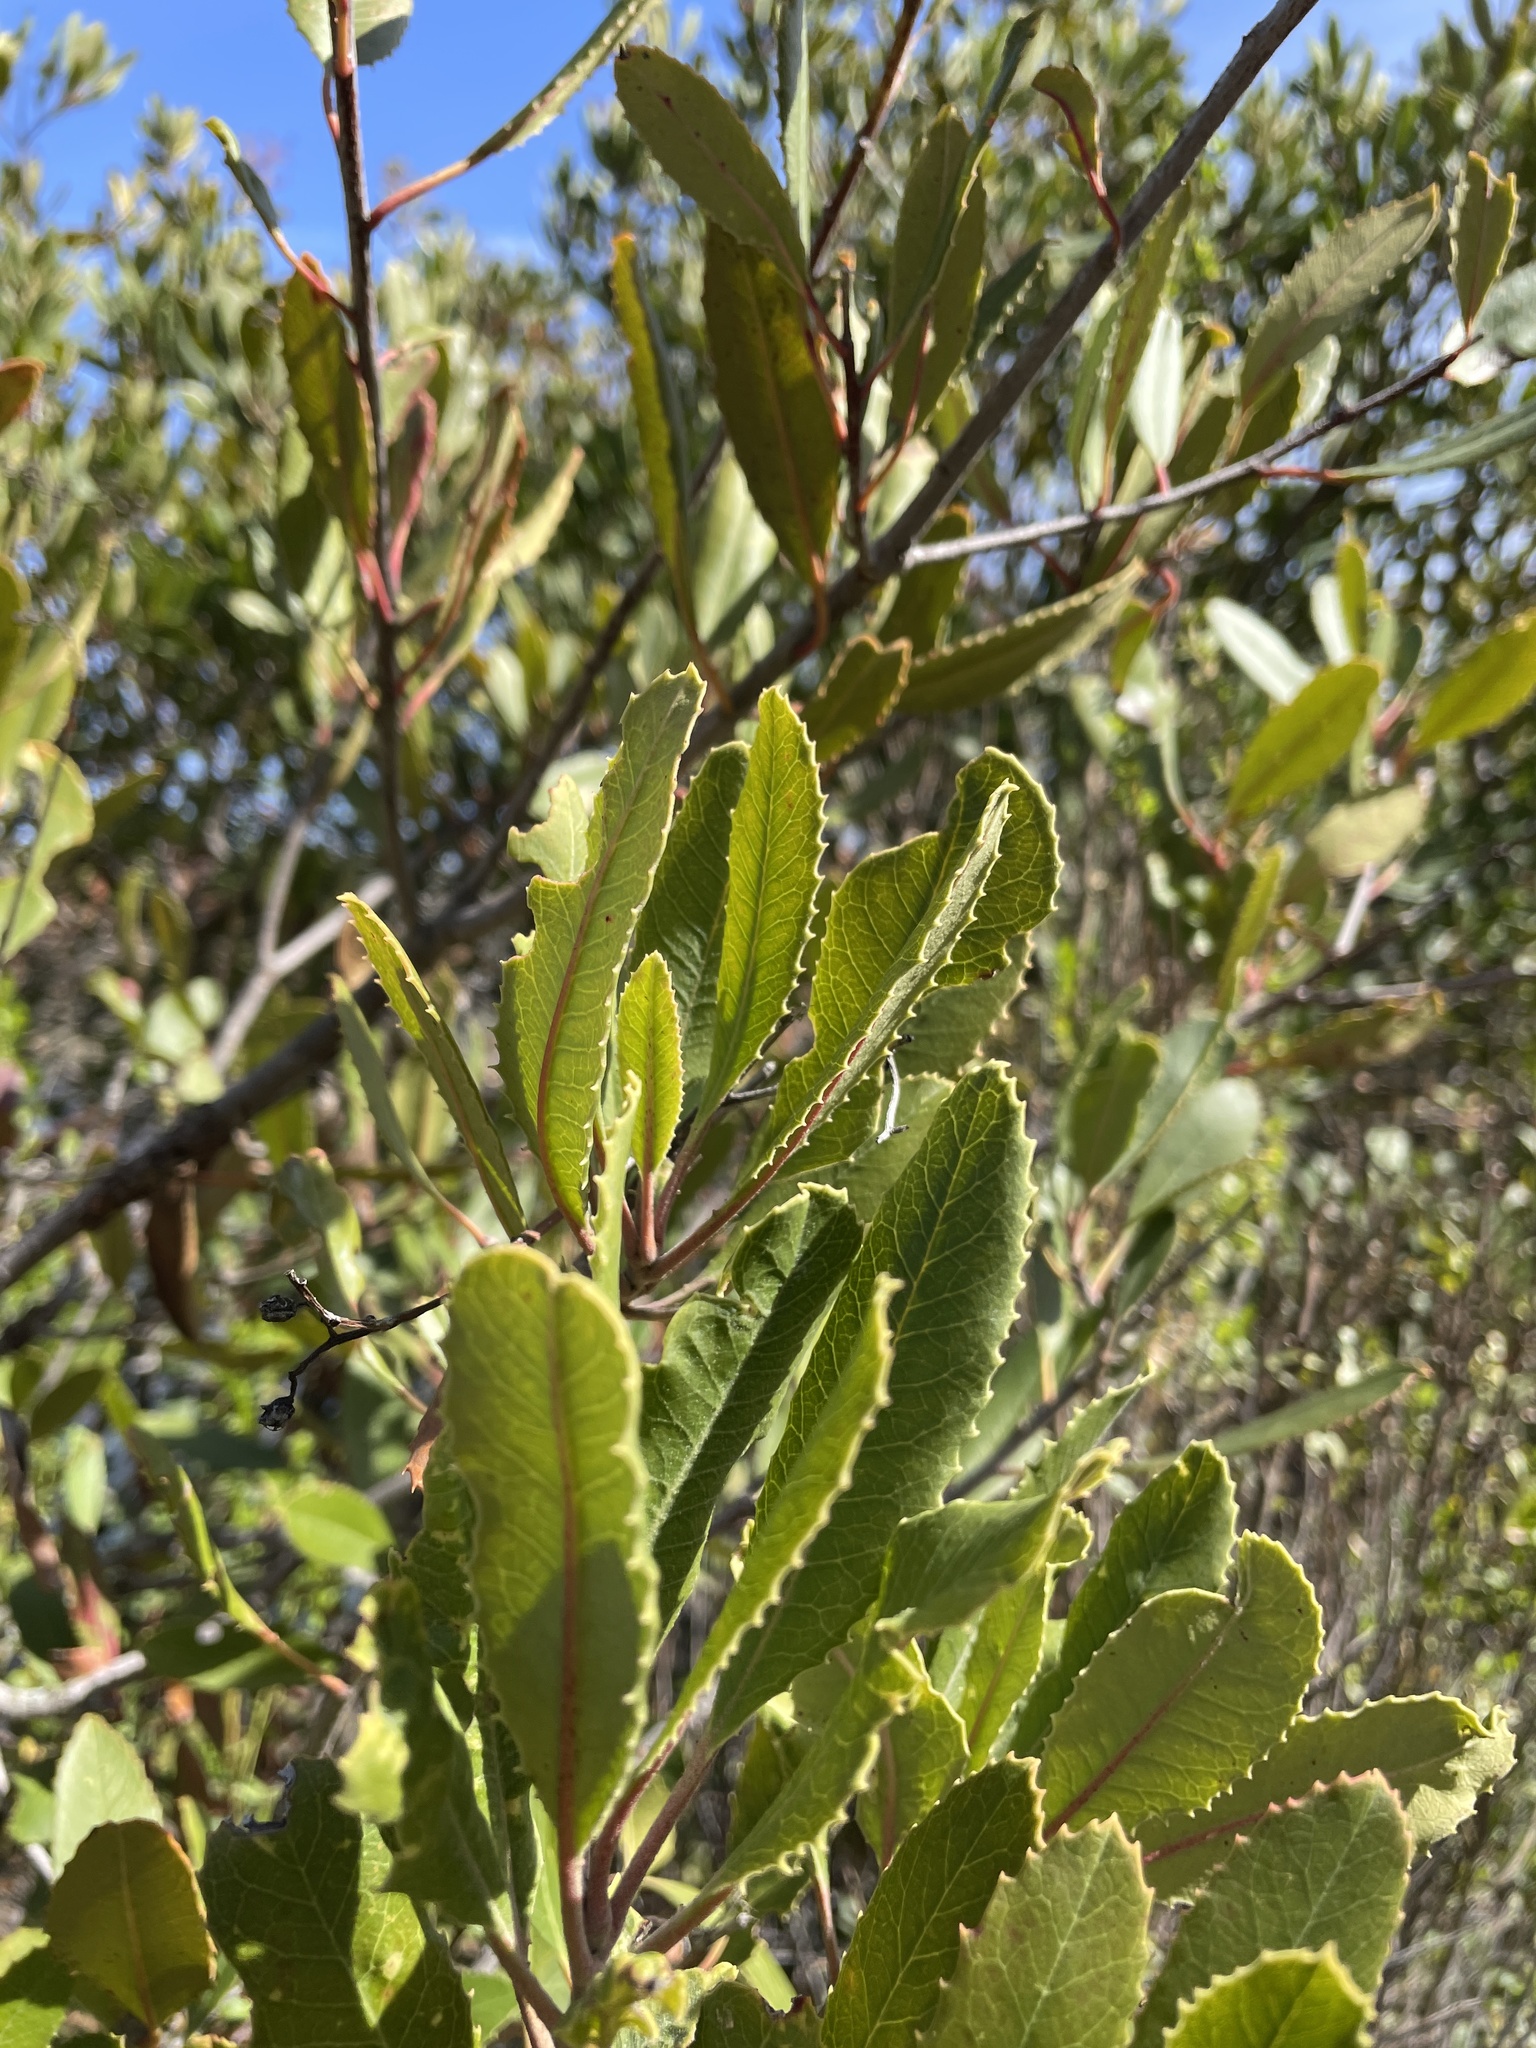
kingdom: Plantae
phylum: Tracheophyta
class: Magnoliopsida
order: Rosales
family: Rosaceae
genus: Heteromeles
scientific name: Heteromeles arbutifolia
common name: California-holly
